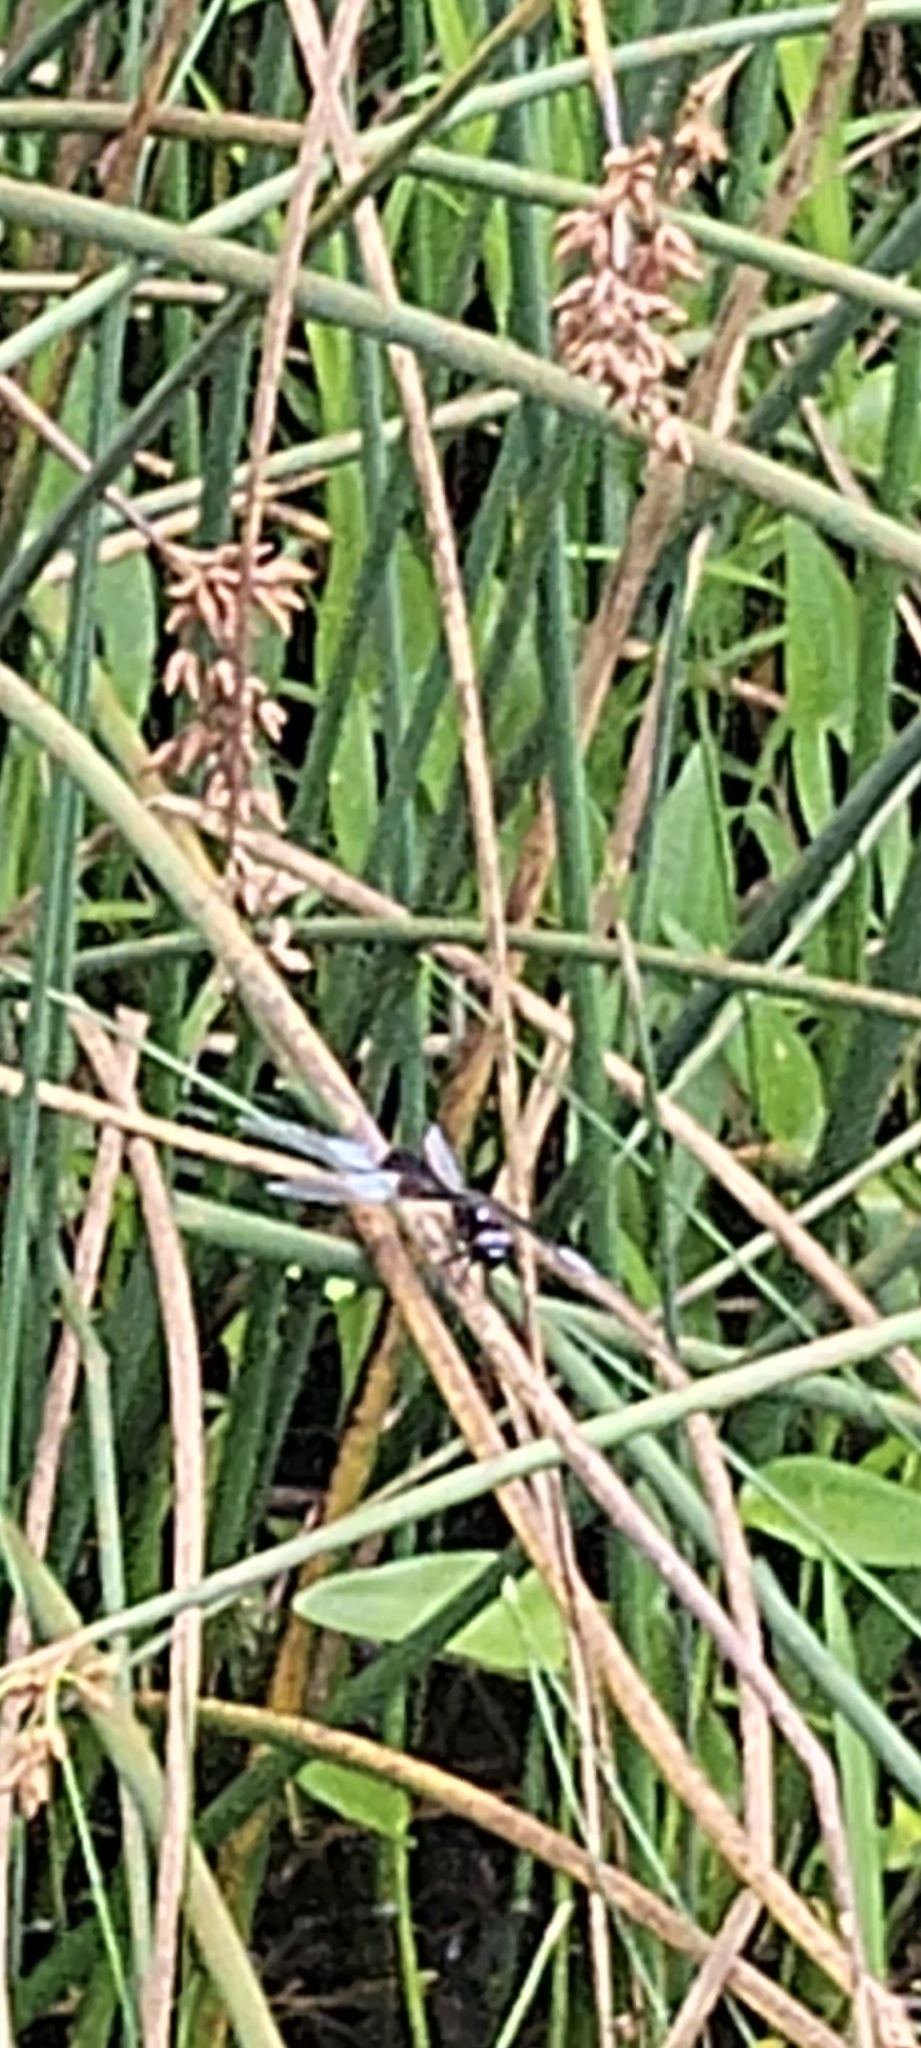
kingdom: Animalia
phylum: Arthropoda
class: Insecta
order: Odonata
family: Libellulidae
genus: Libellula
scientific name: Libellula luctuosa
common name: Widow skimmer
